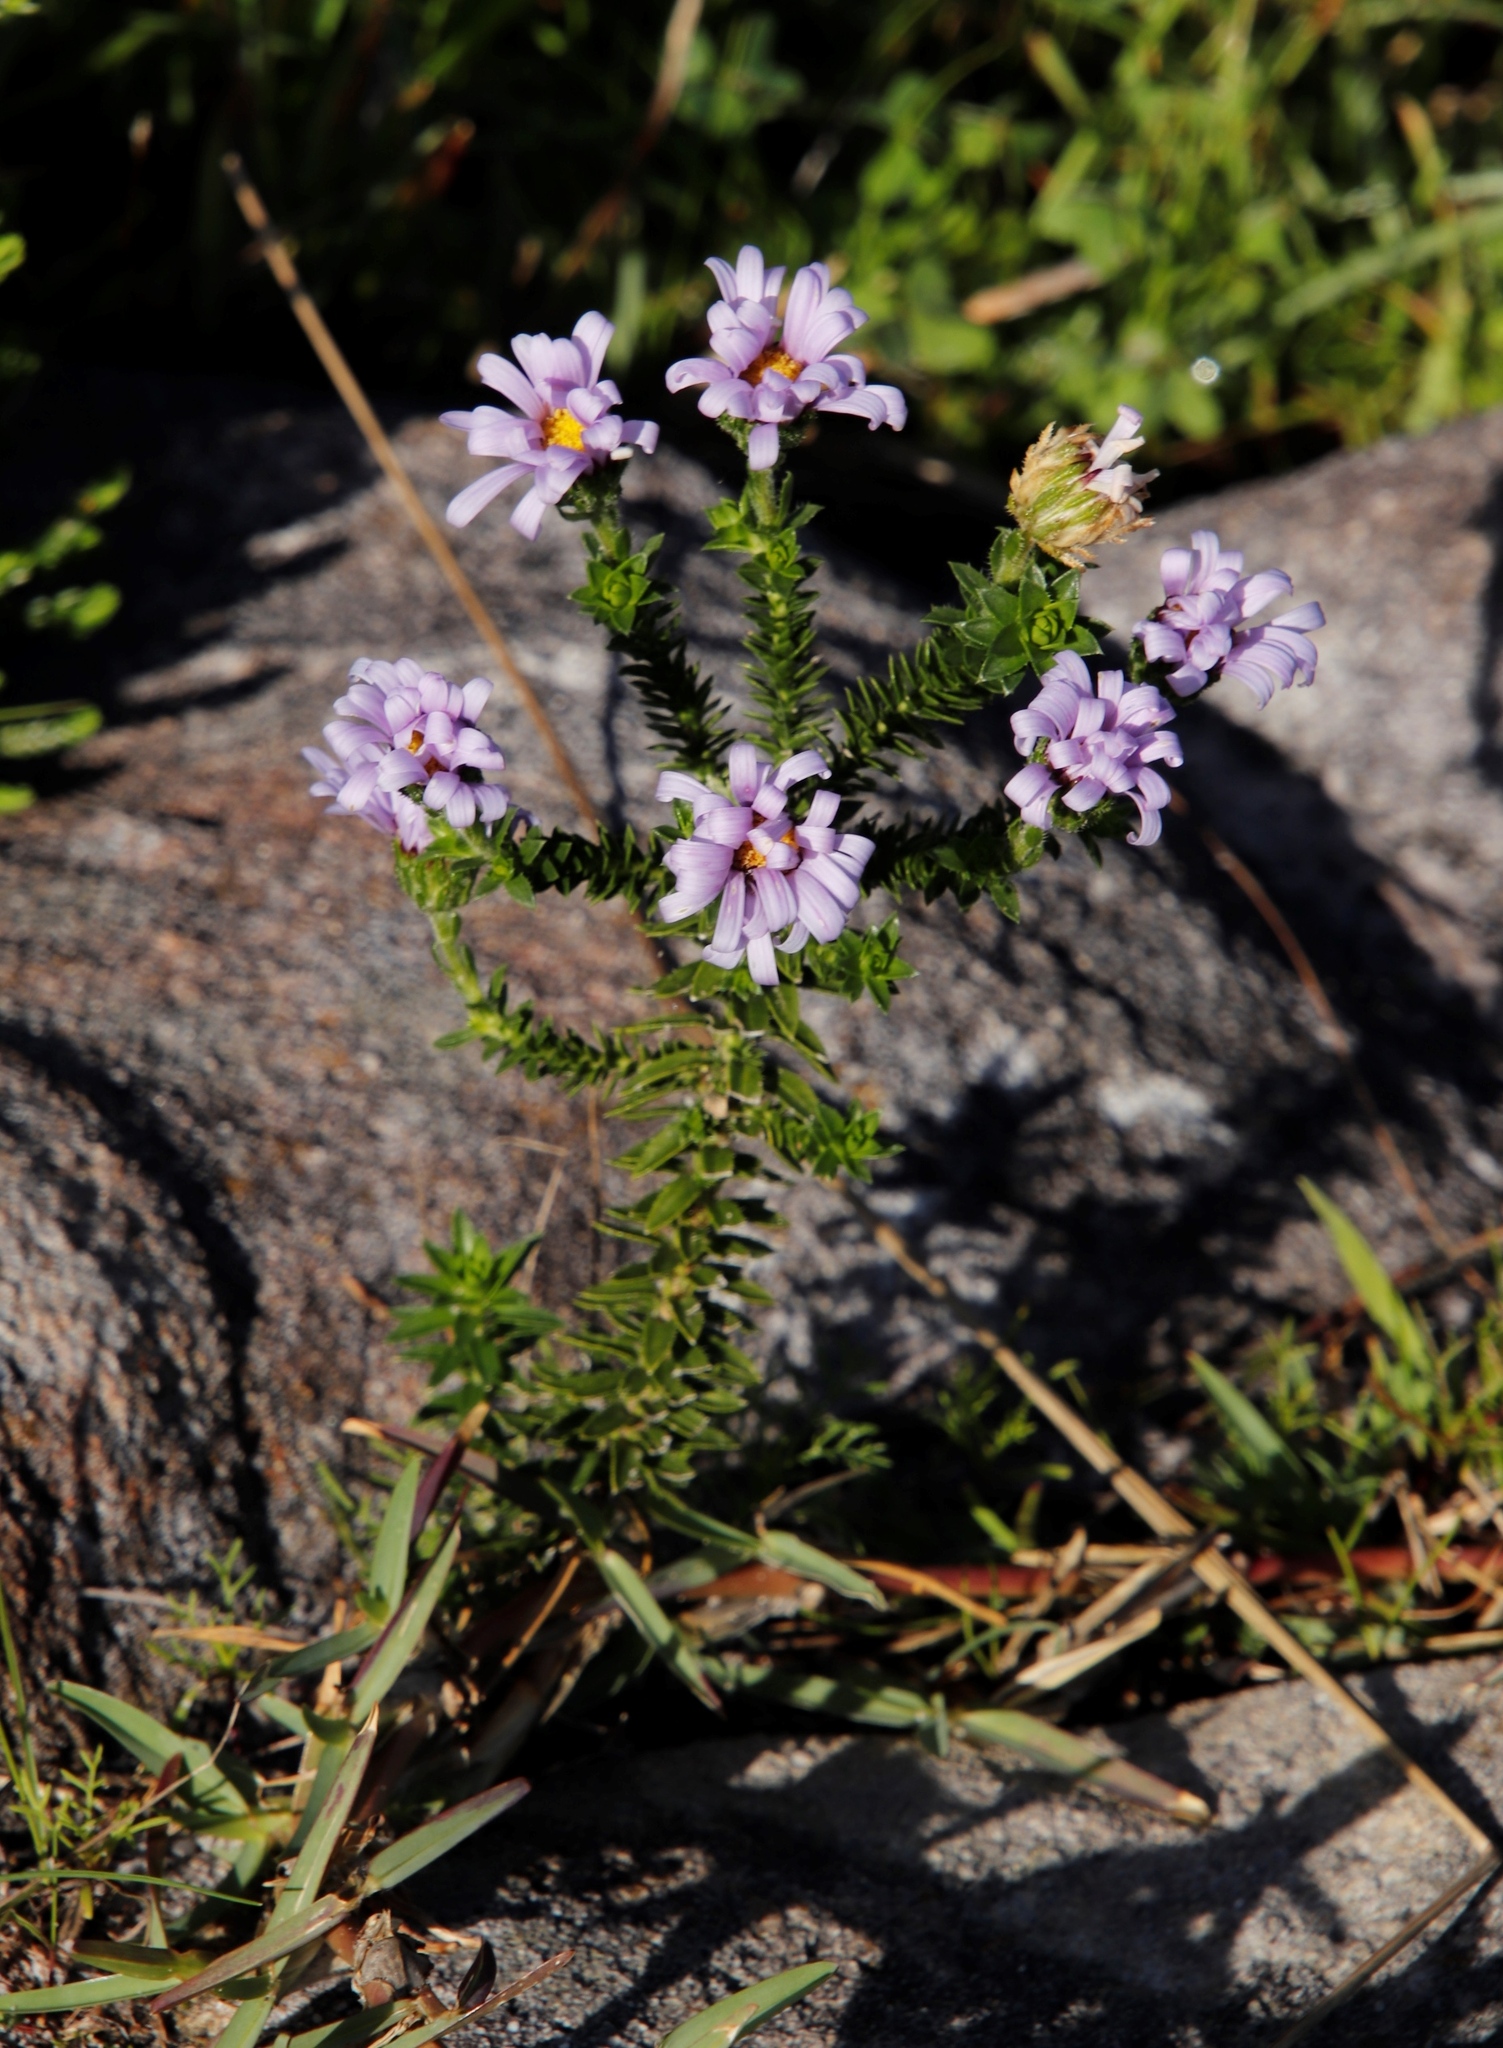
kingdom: Plantae
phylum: Tracheophyta
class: Magnoliopsida
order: Asterales
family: Asteraceae
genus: Felicia
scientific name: Felicia echinata
